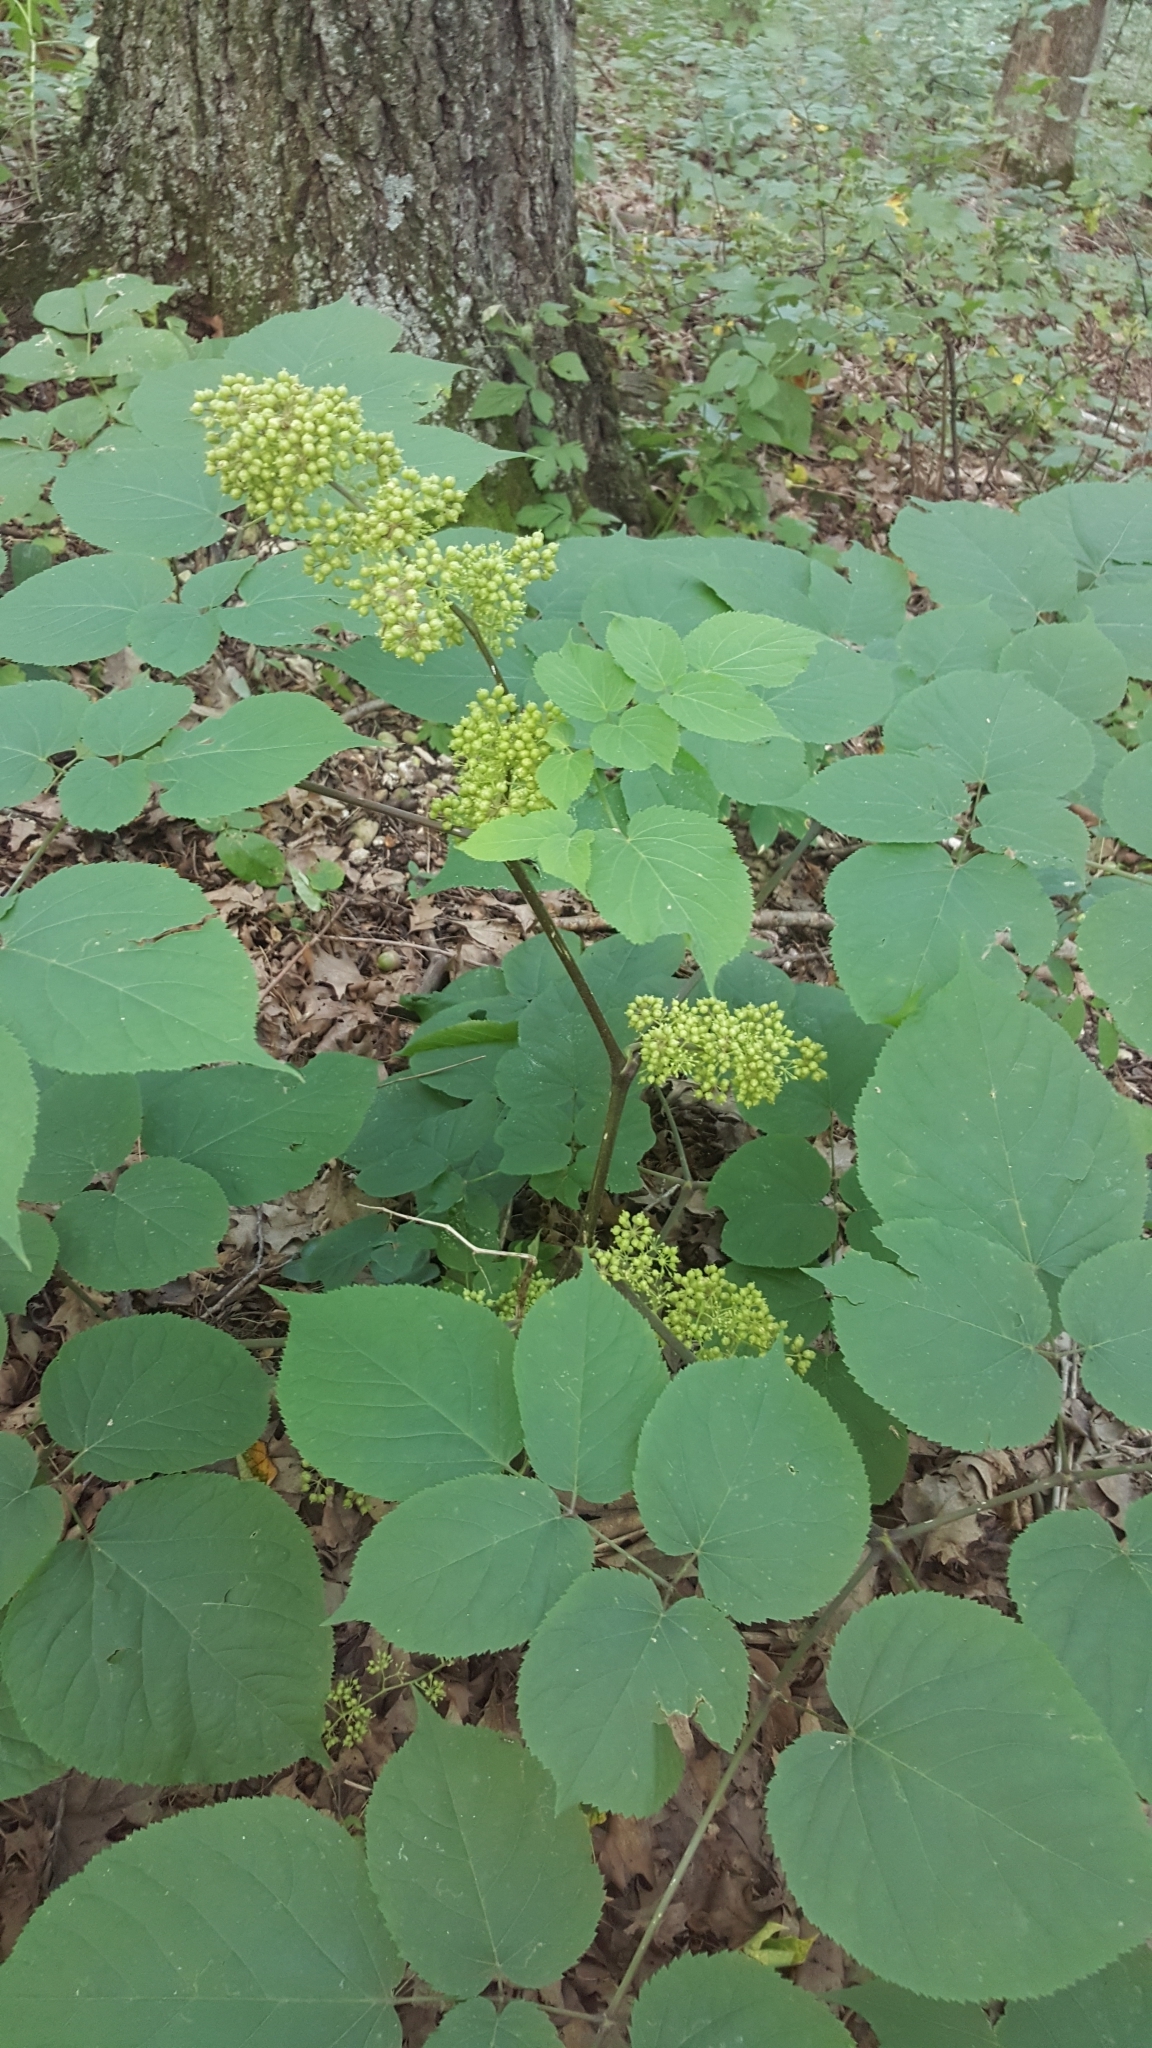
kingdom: Plantae
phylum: Tracheophyta
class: Magnoliopsida
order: Apiales
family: Araliaceae
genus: Aralia
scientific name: Aralia racemosa
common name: American-spikenard
